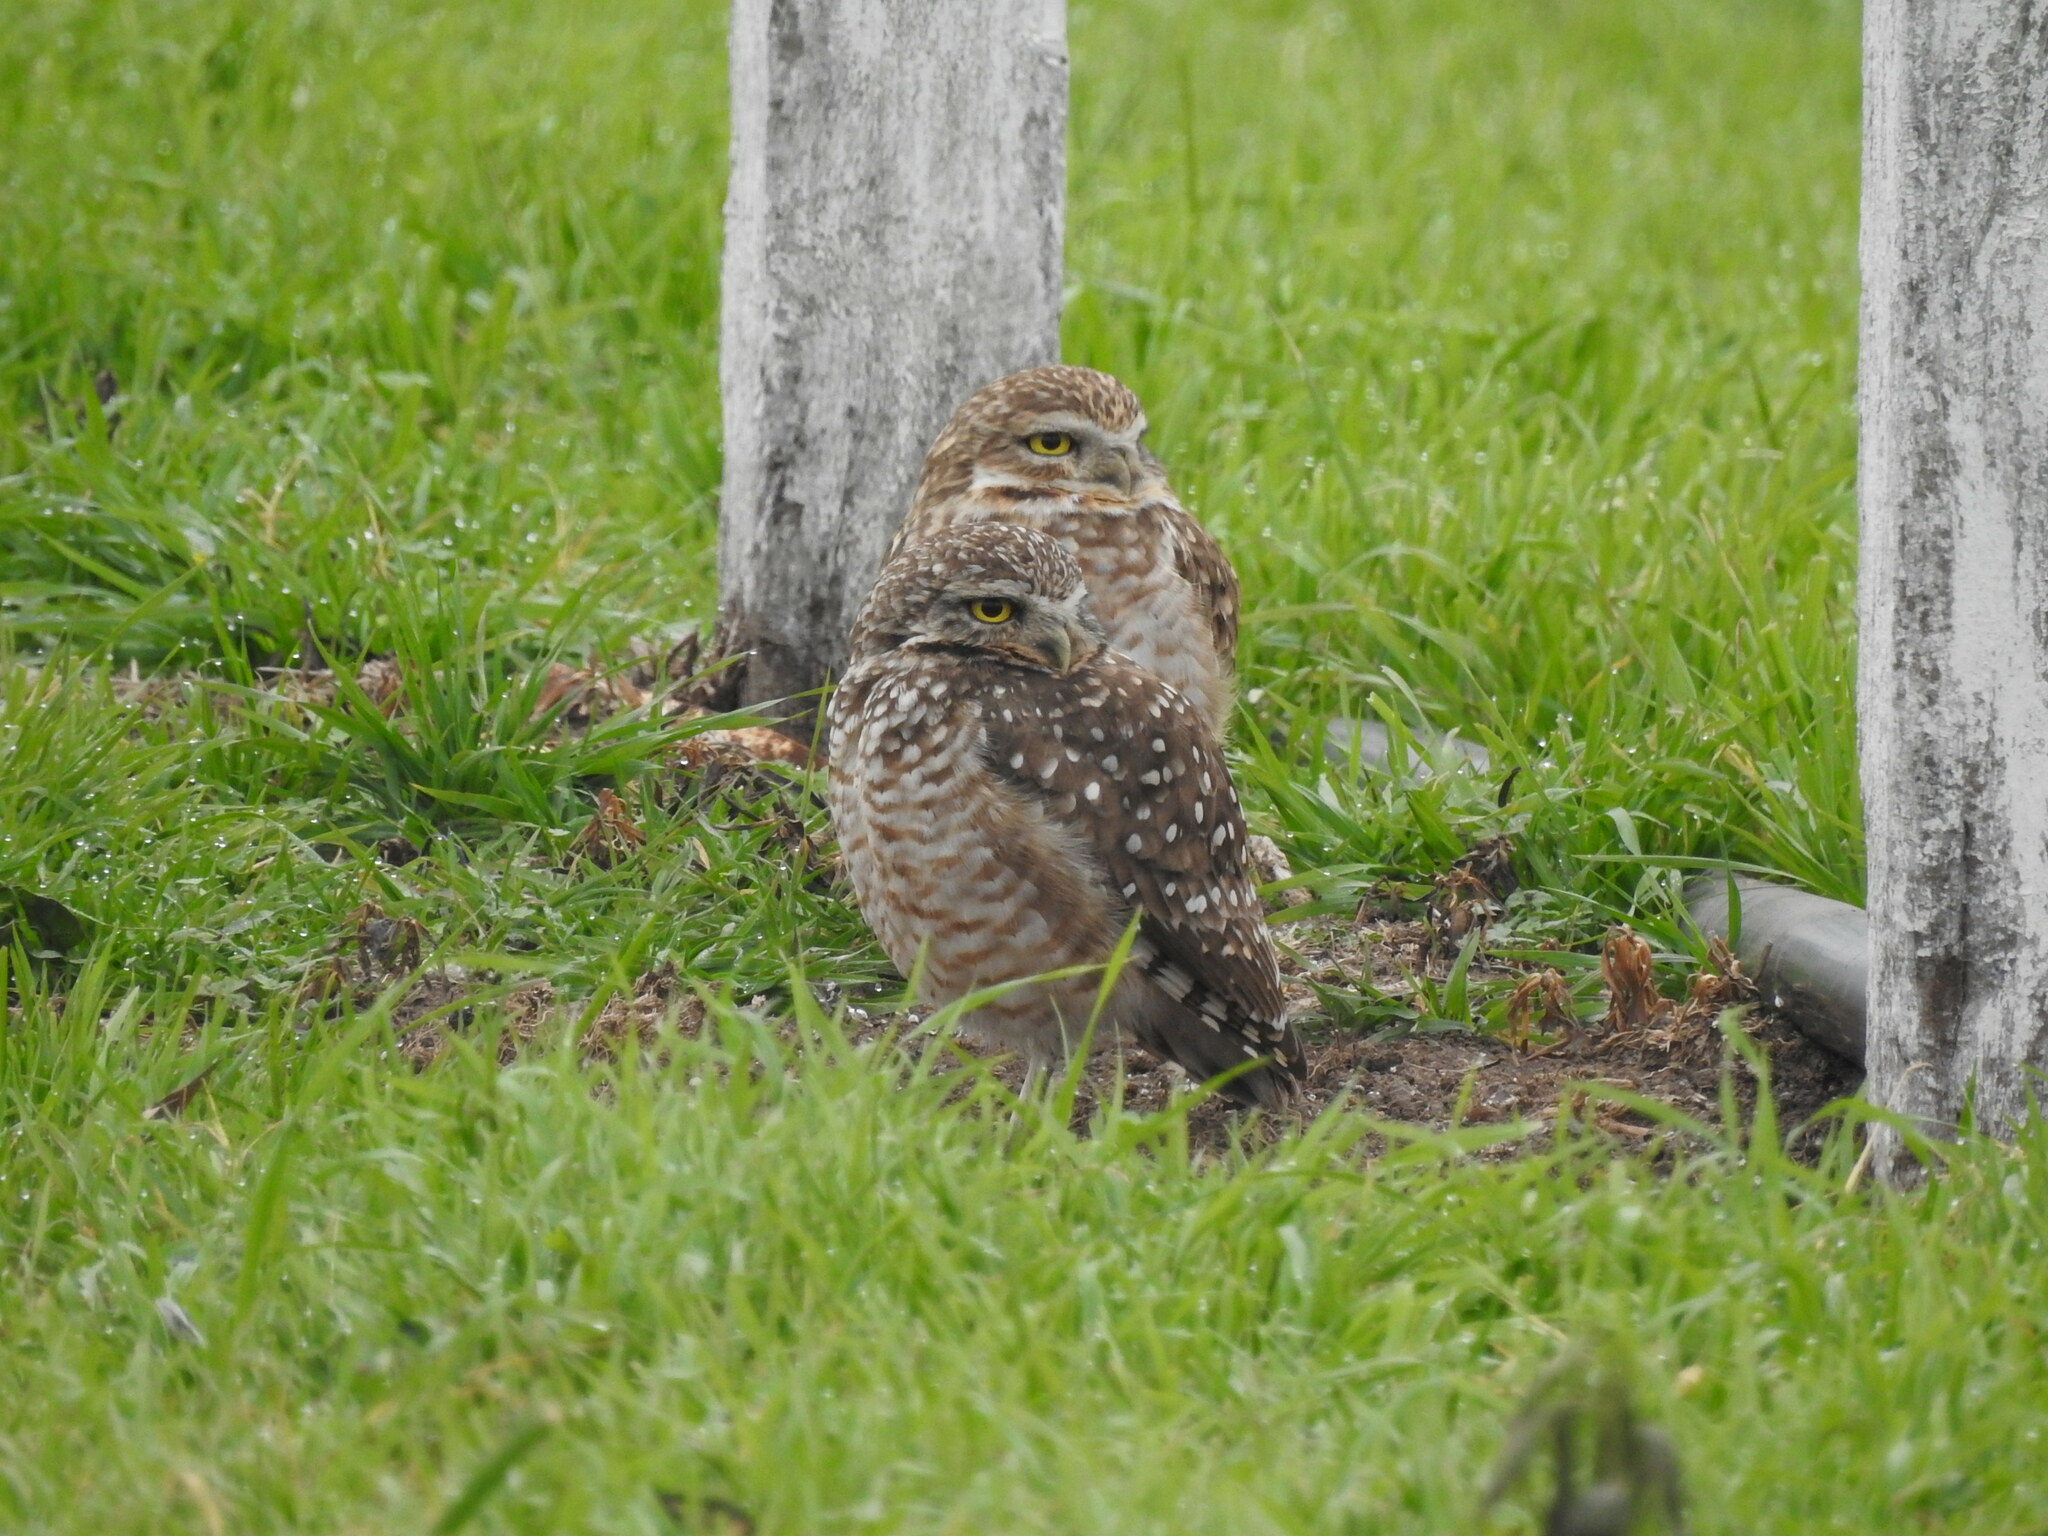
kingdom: Animalia
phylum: Chordata
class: Aves
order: Strigiformes
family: Strigidae
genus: Athene
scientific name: Athene cunicularia
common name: Burrowing owl
